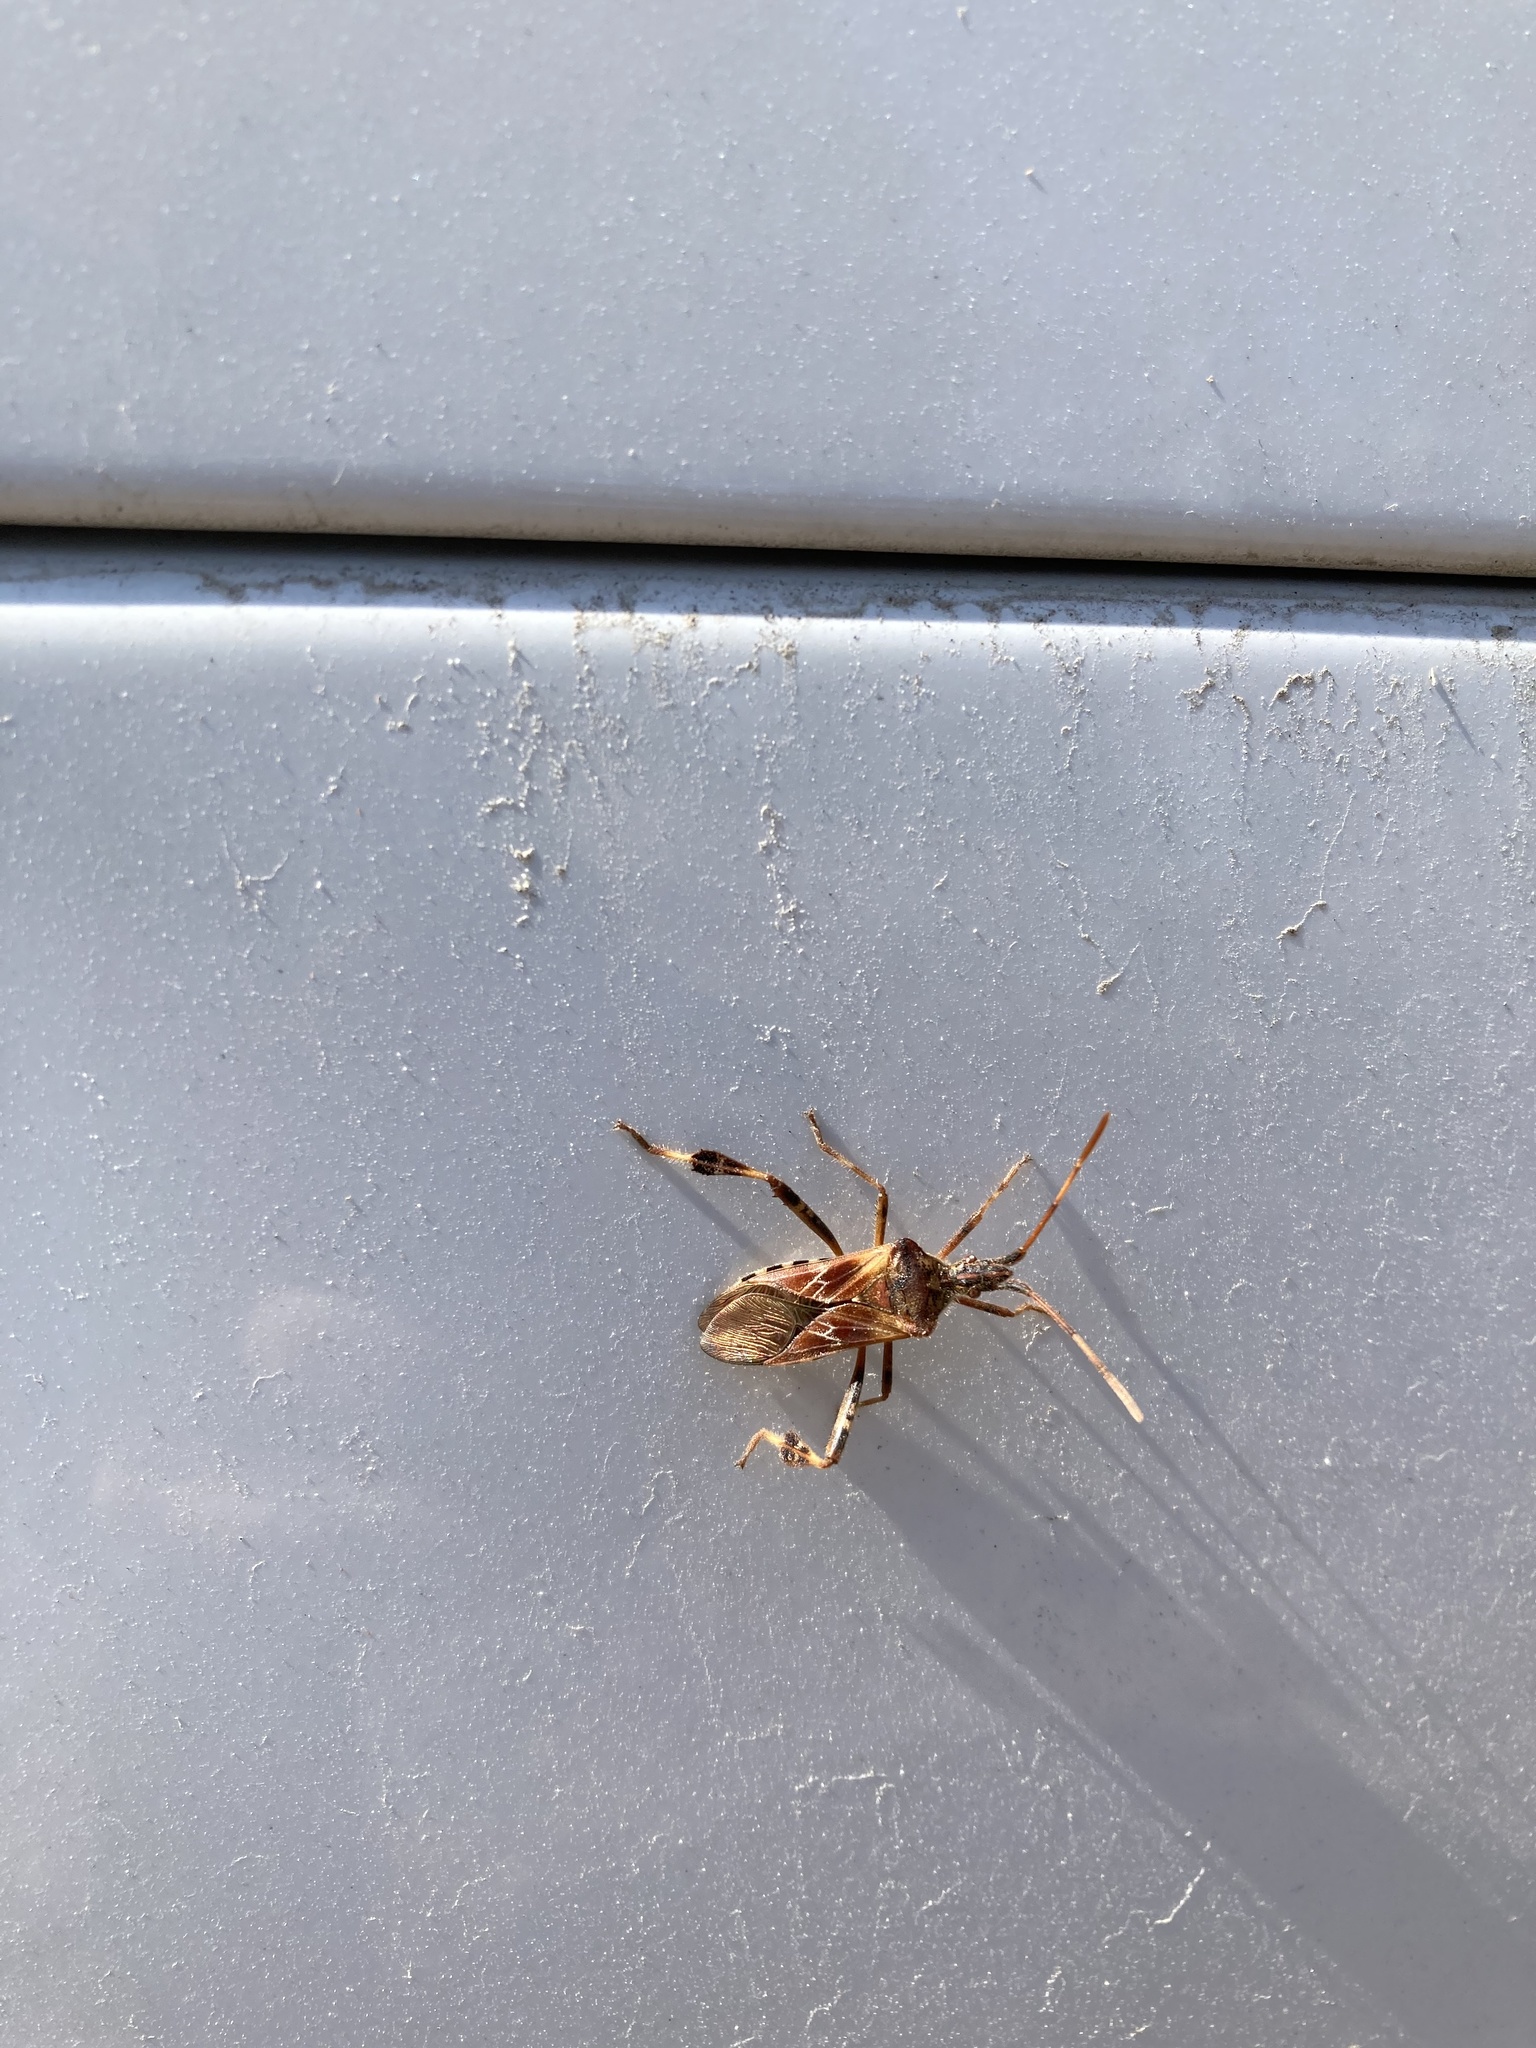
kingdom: Animalia
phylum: Arthropoda
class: Insecta
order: Hemiptera
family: Coreidae
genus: Leptoglossus
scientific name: Leptoglossus occidentalis
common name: Western conifer-seed bug
